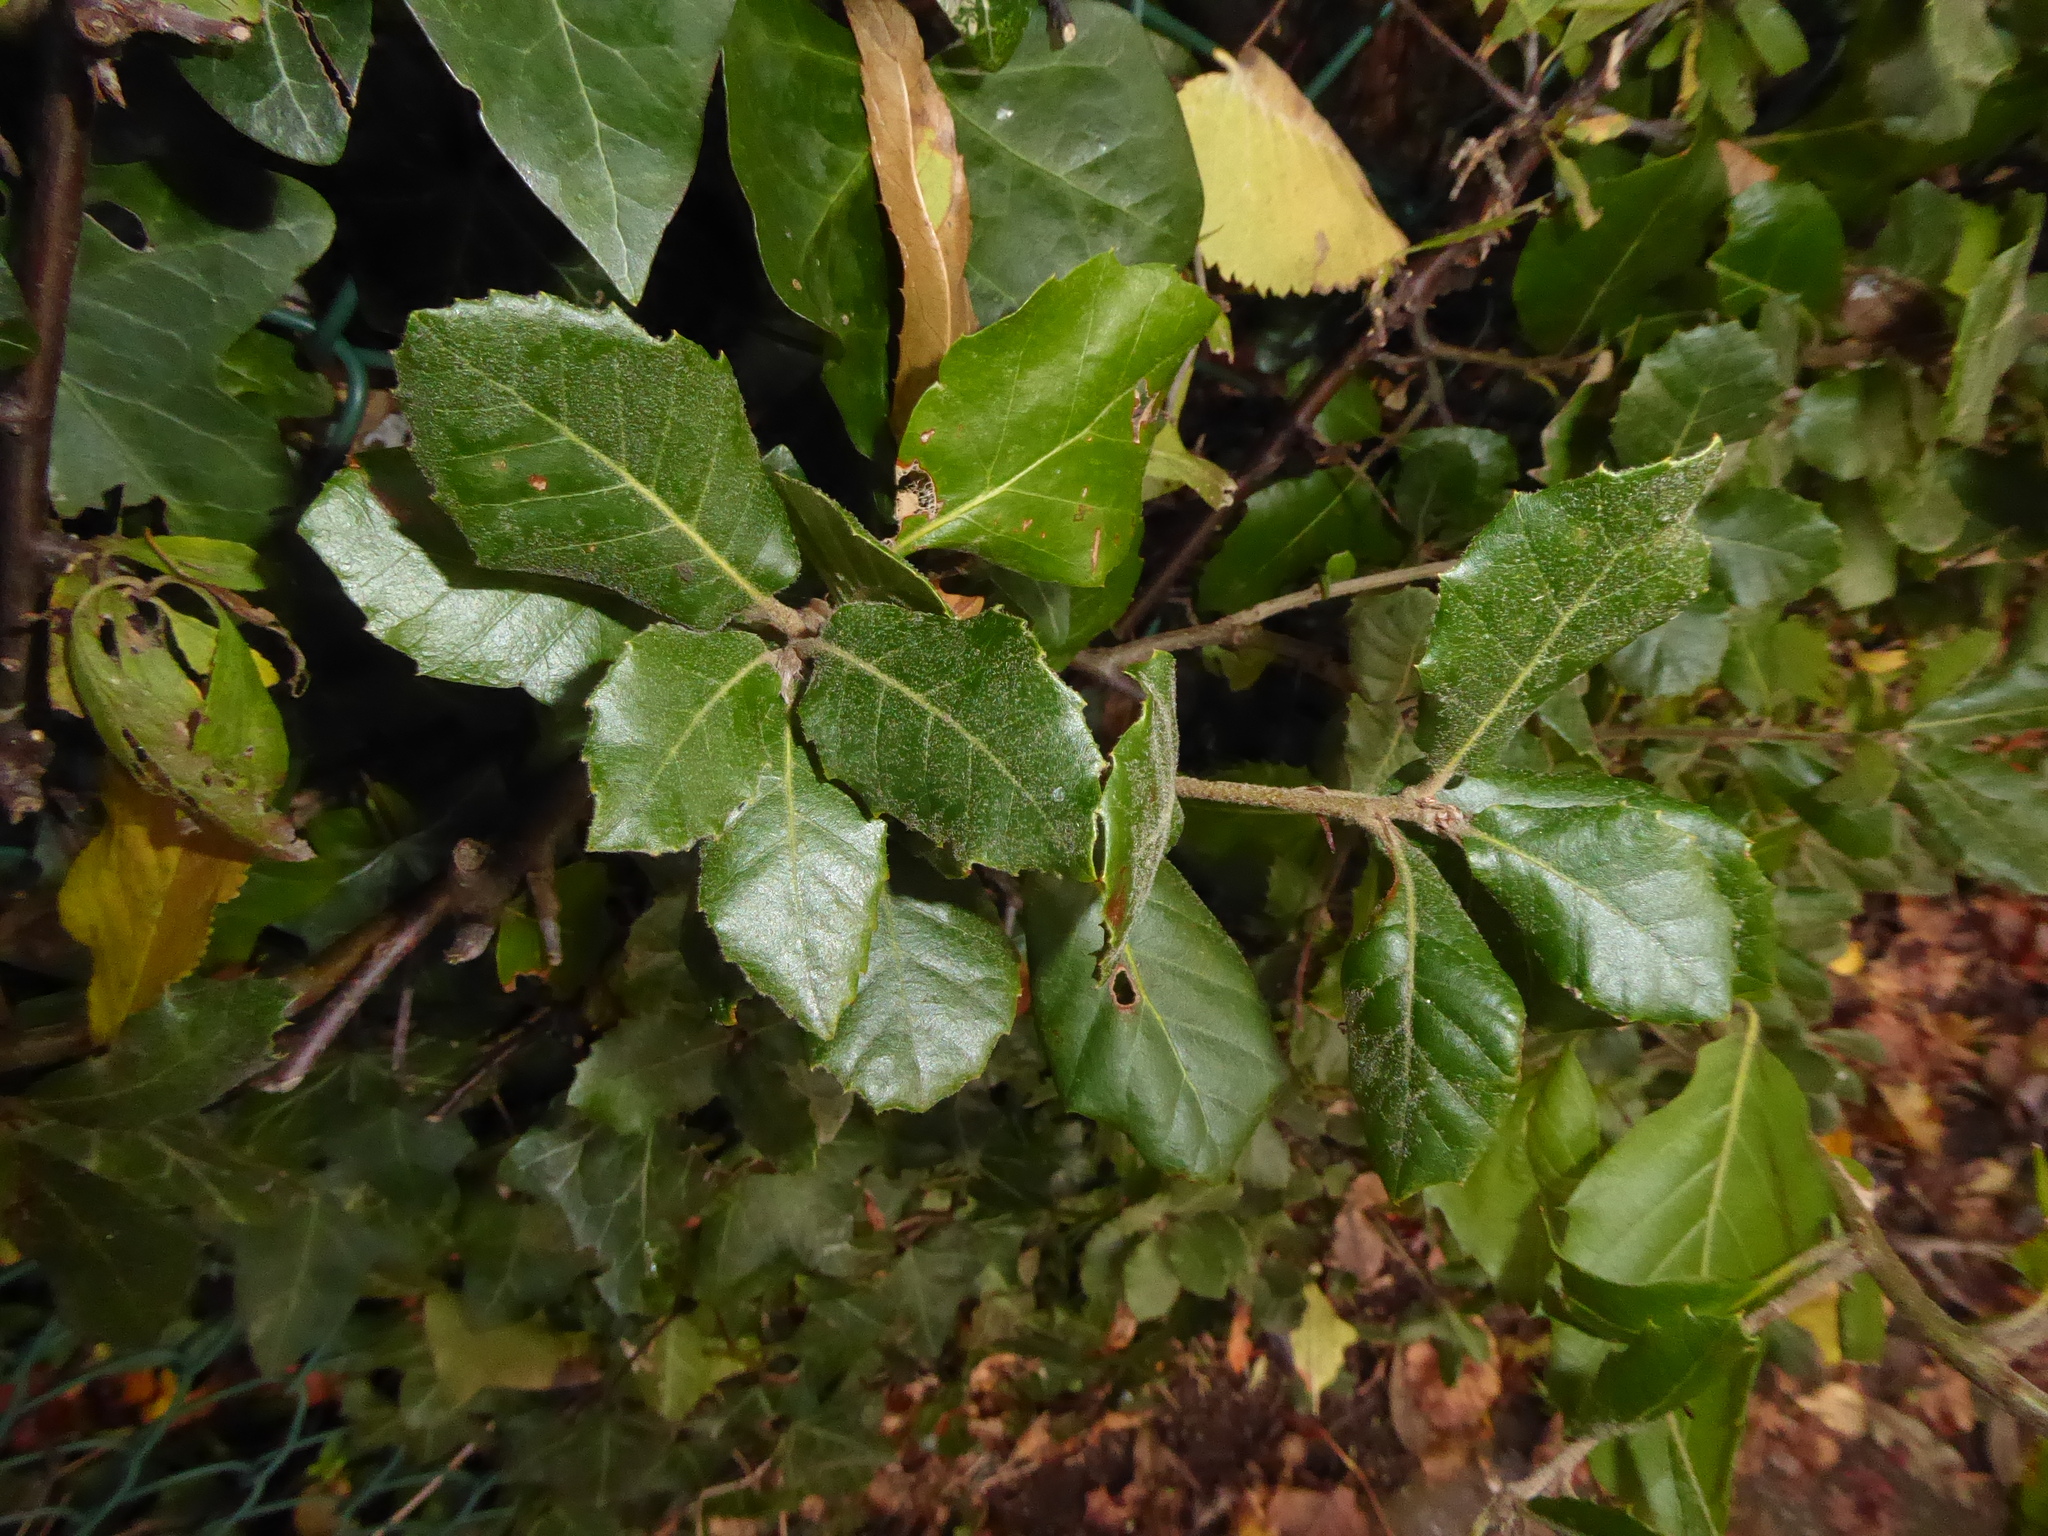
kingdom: Plantae
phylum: Tracheophyta
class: Magnoliopsida
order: Fagales
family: Fagaceae
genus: Quercus
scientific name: Quercus ilex
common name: Evergreen oak
